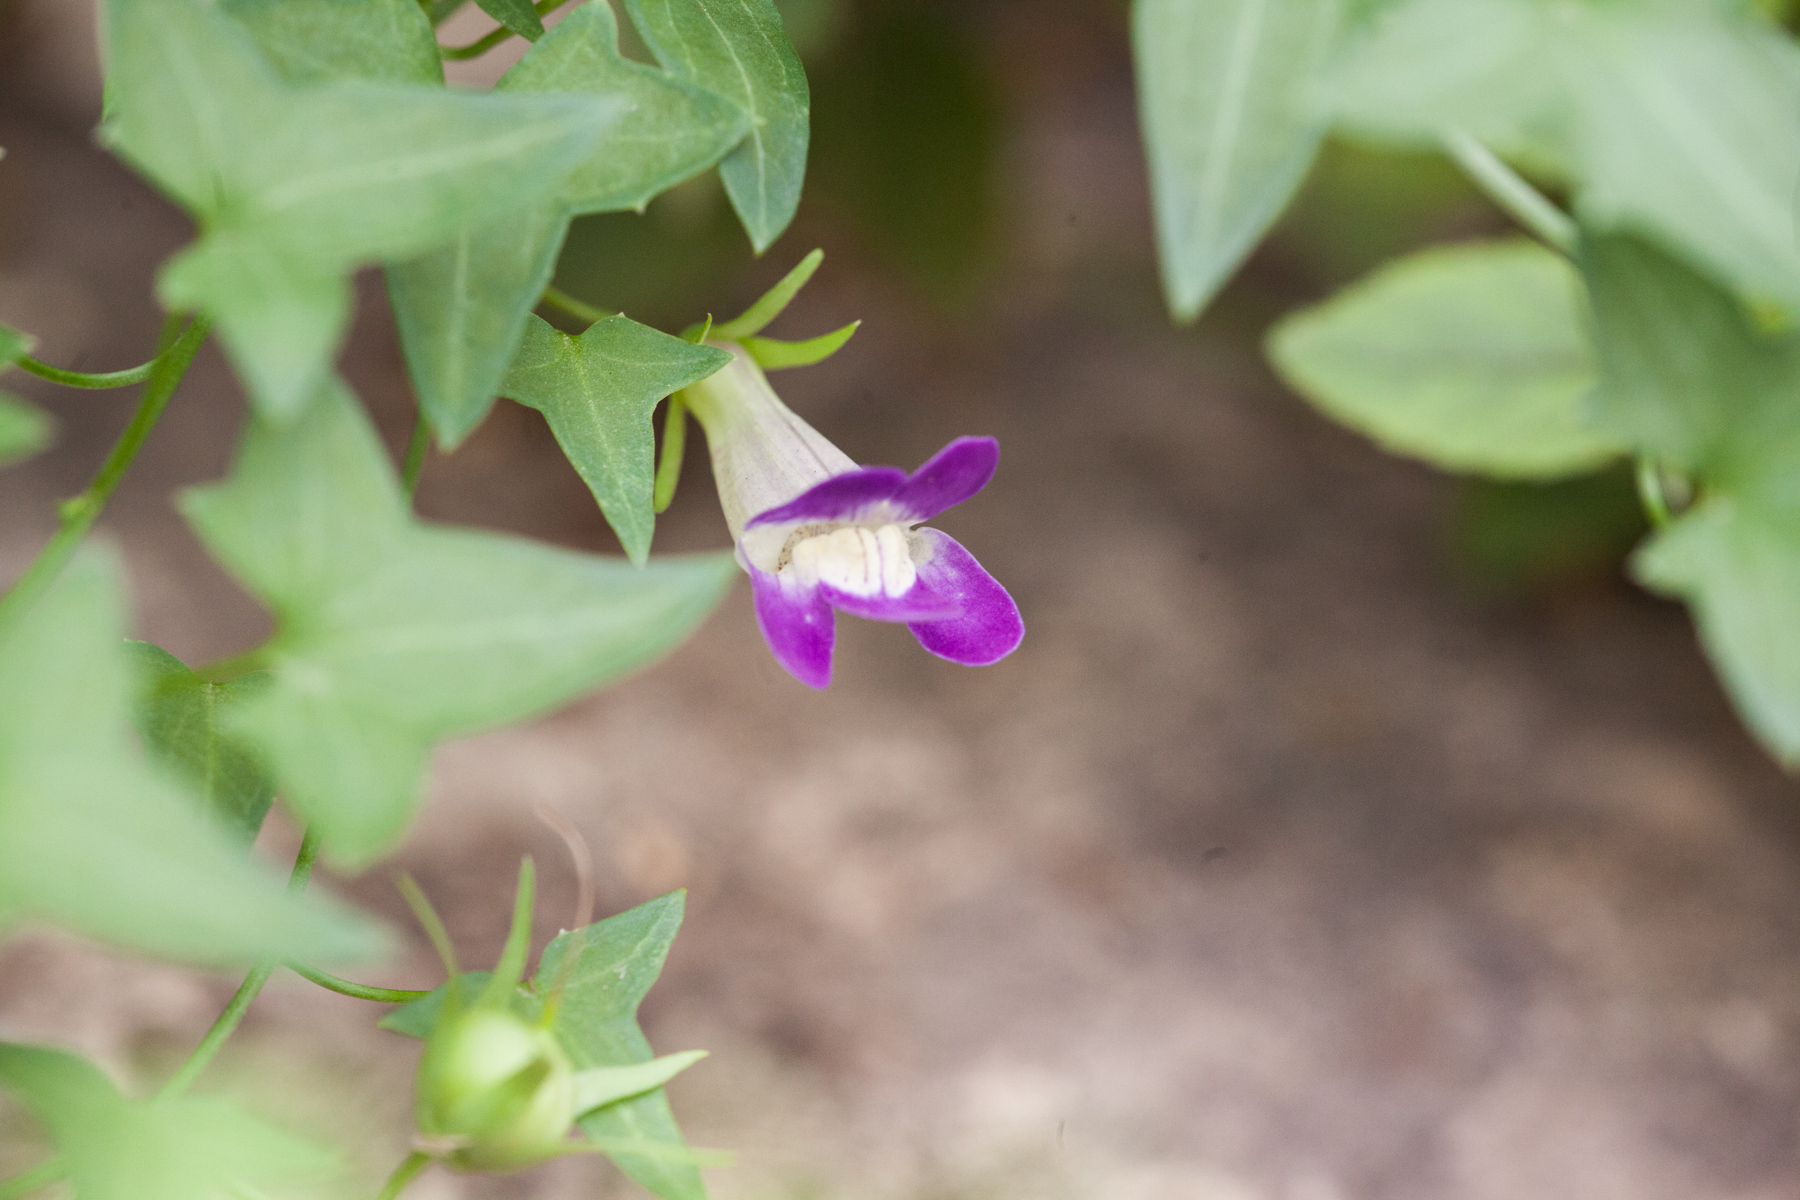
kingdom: Plantae
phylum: Tracheophyta
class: Magnoliopsida
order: Lamiales
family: Plantaginaceae
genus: Maurandella
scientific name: Maurandella antirrhiniflora
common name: Violet twining-snapdragon
